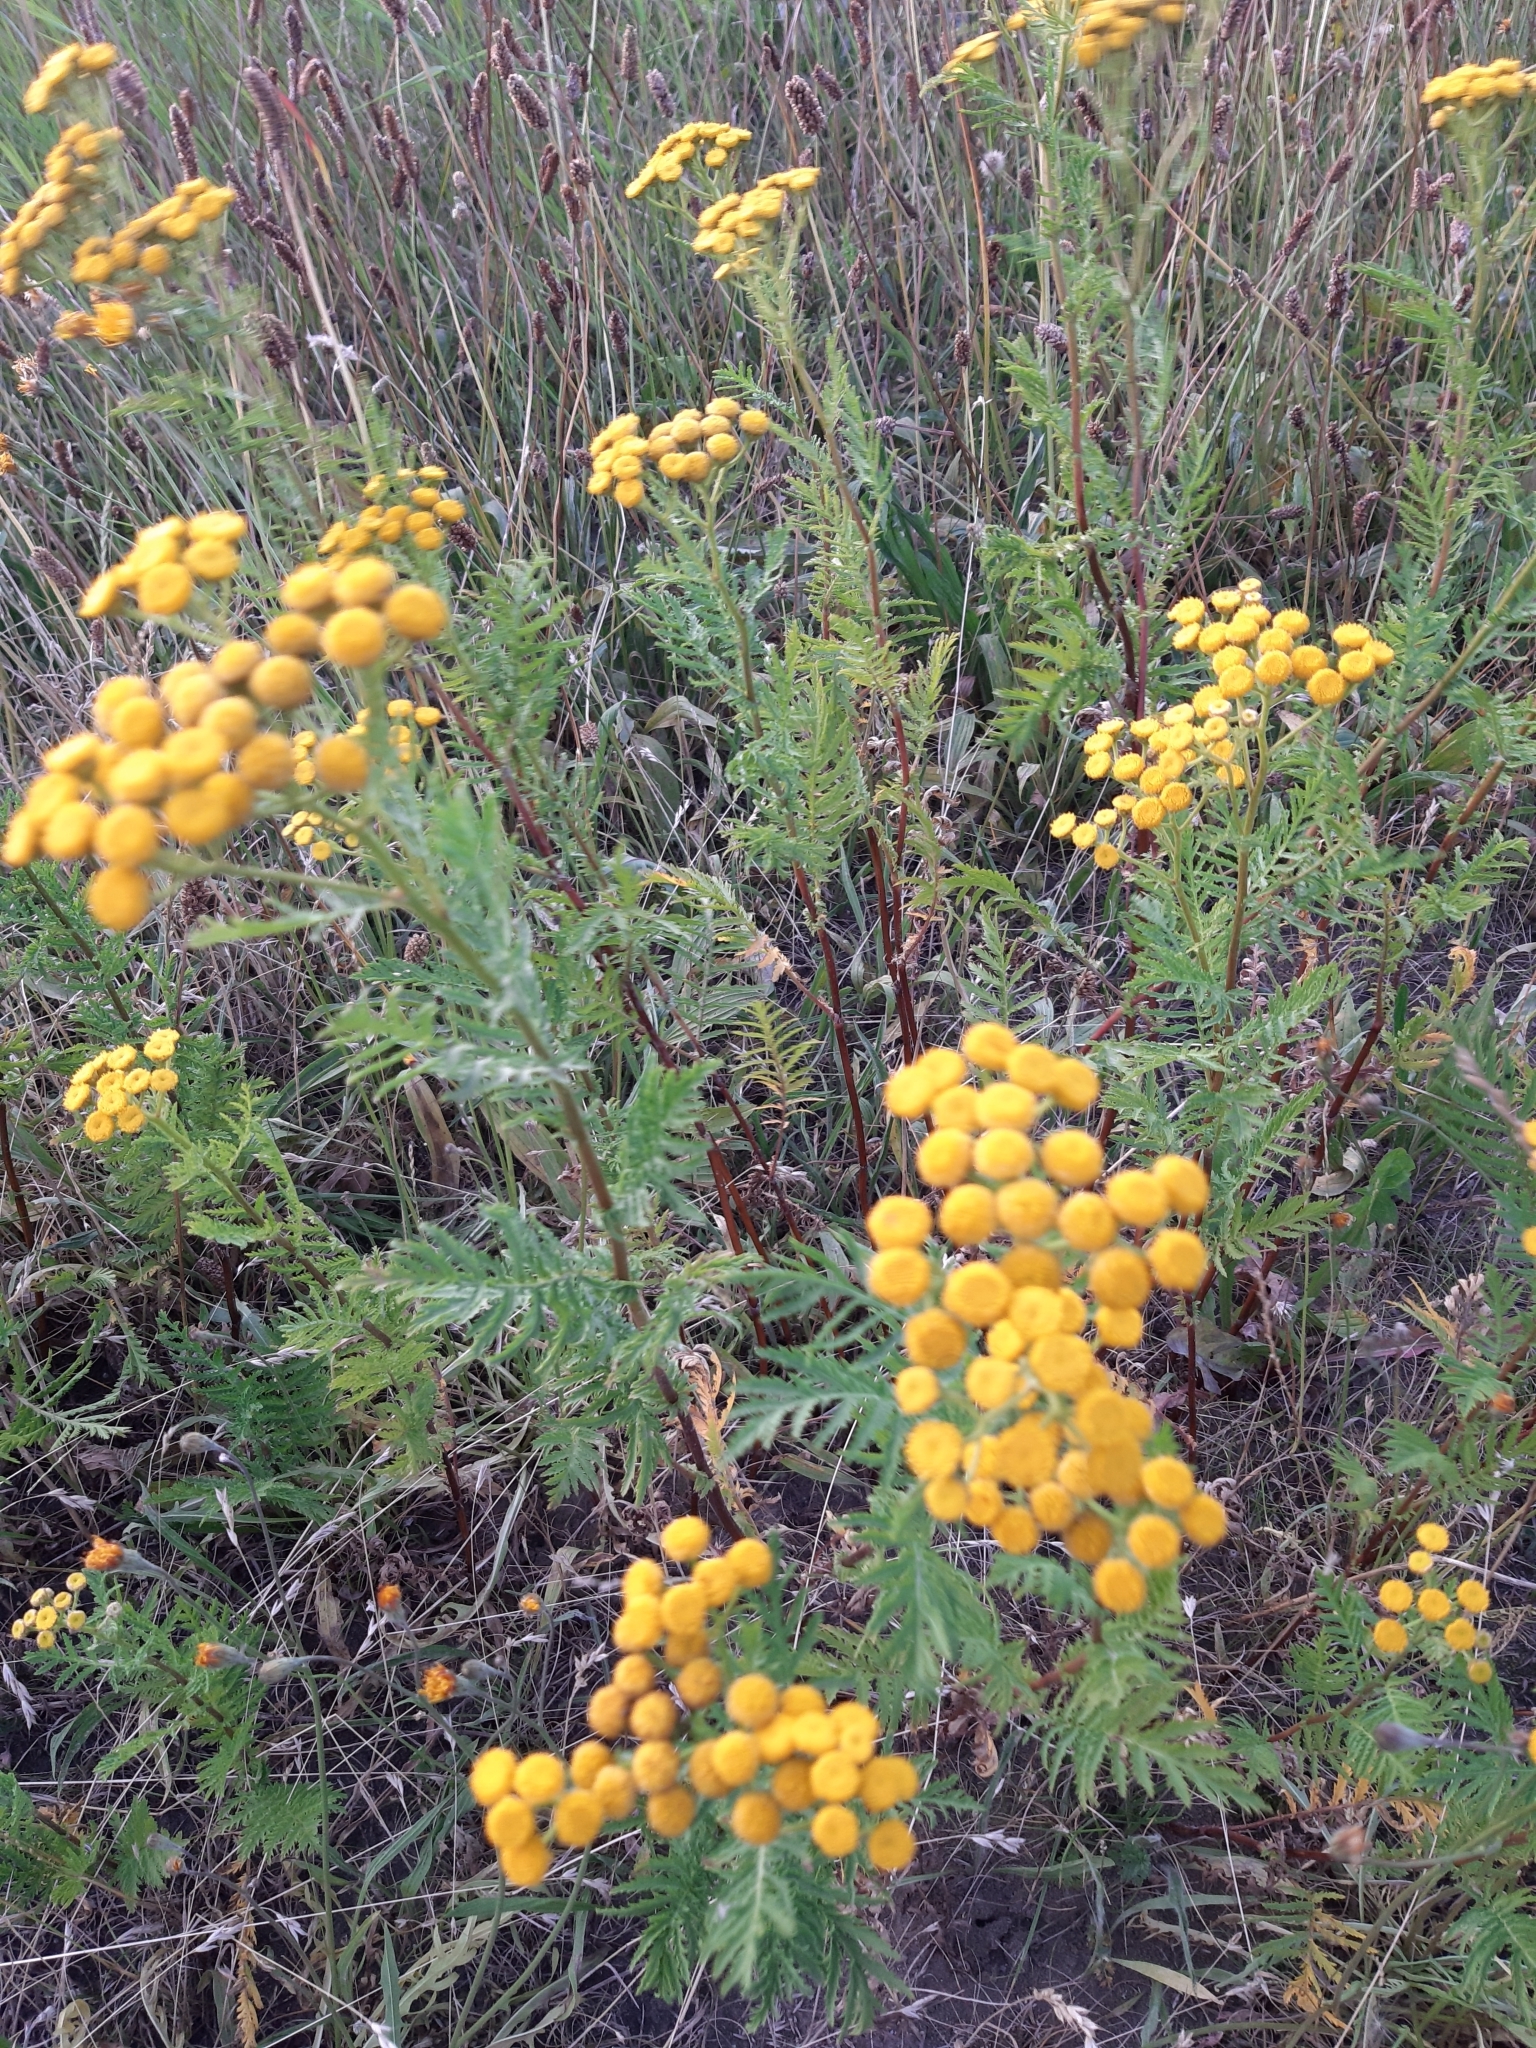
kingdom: Plantae
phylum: Tracheophyta
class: Magnoliopsida
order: Asterales
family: Asteraceae
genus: Tanacetum
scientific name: Tanacetum vulgare
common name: Common tansy
